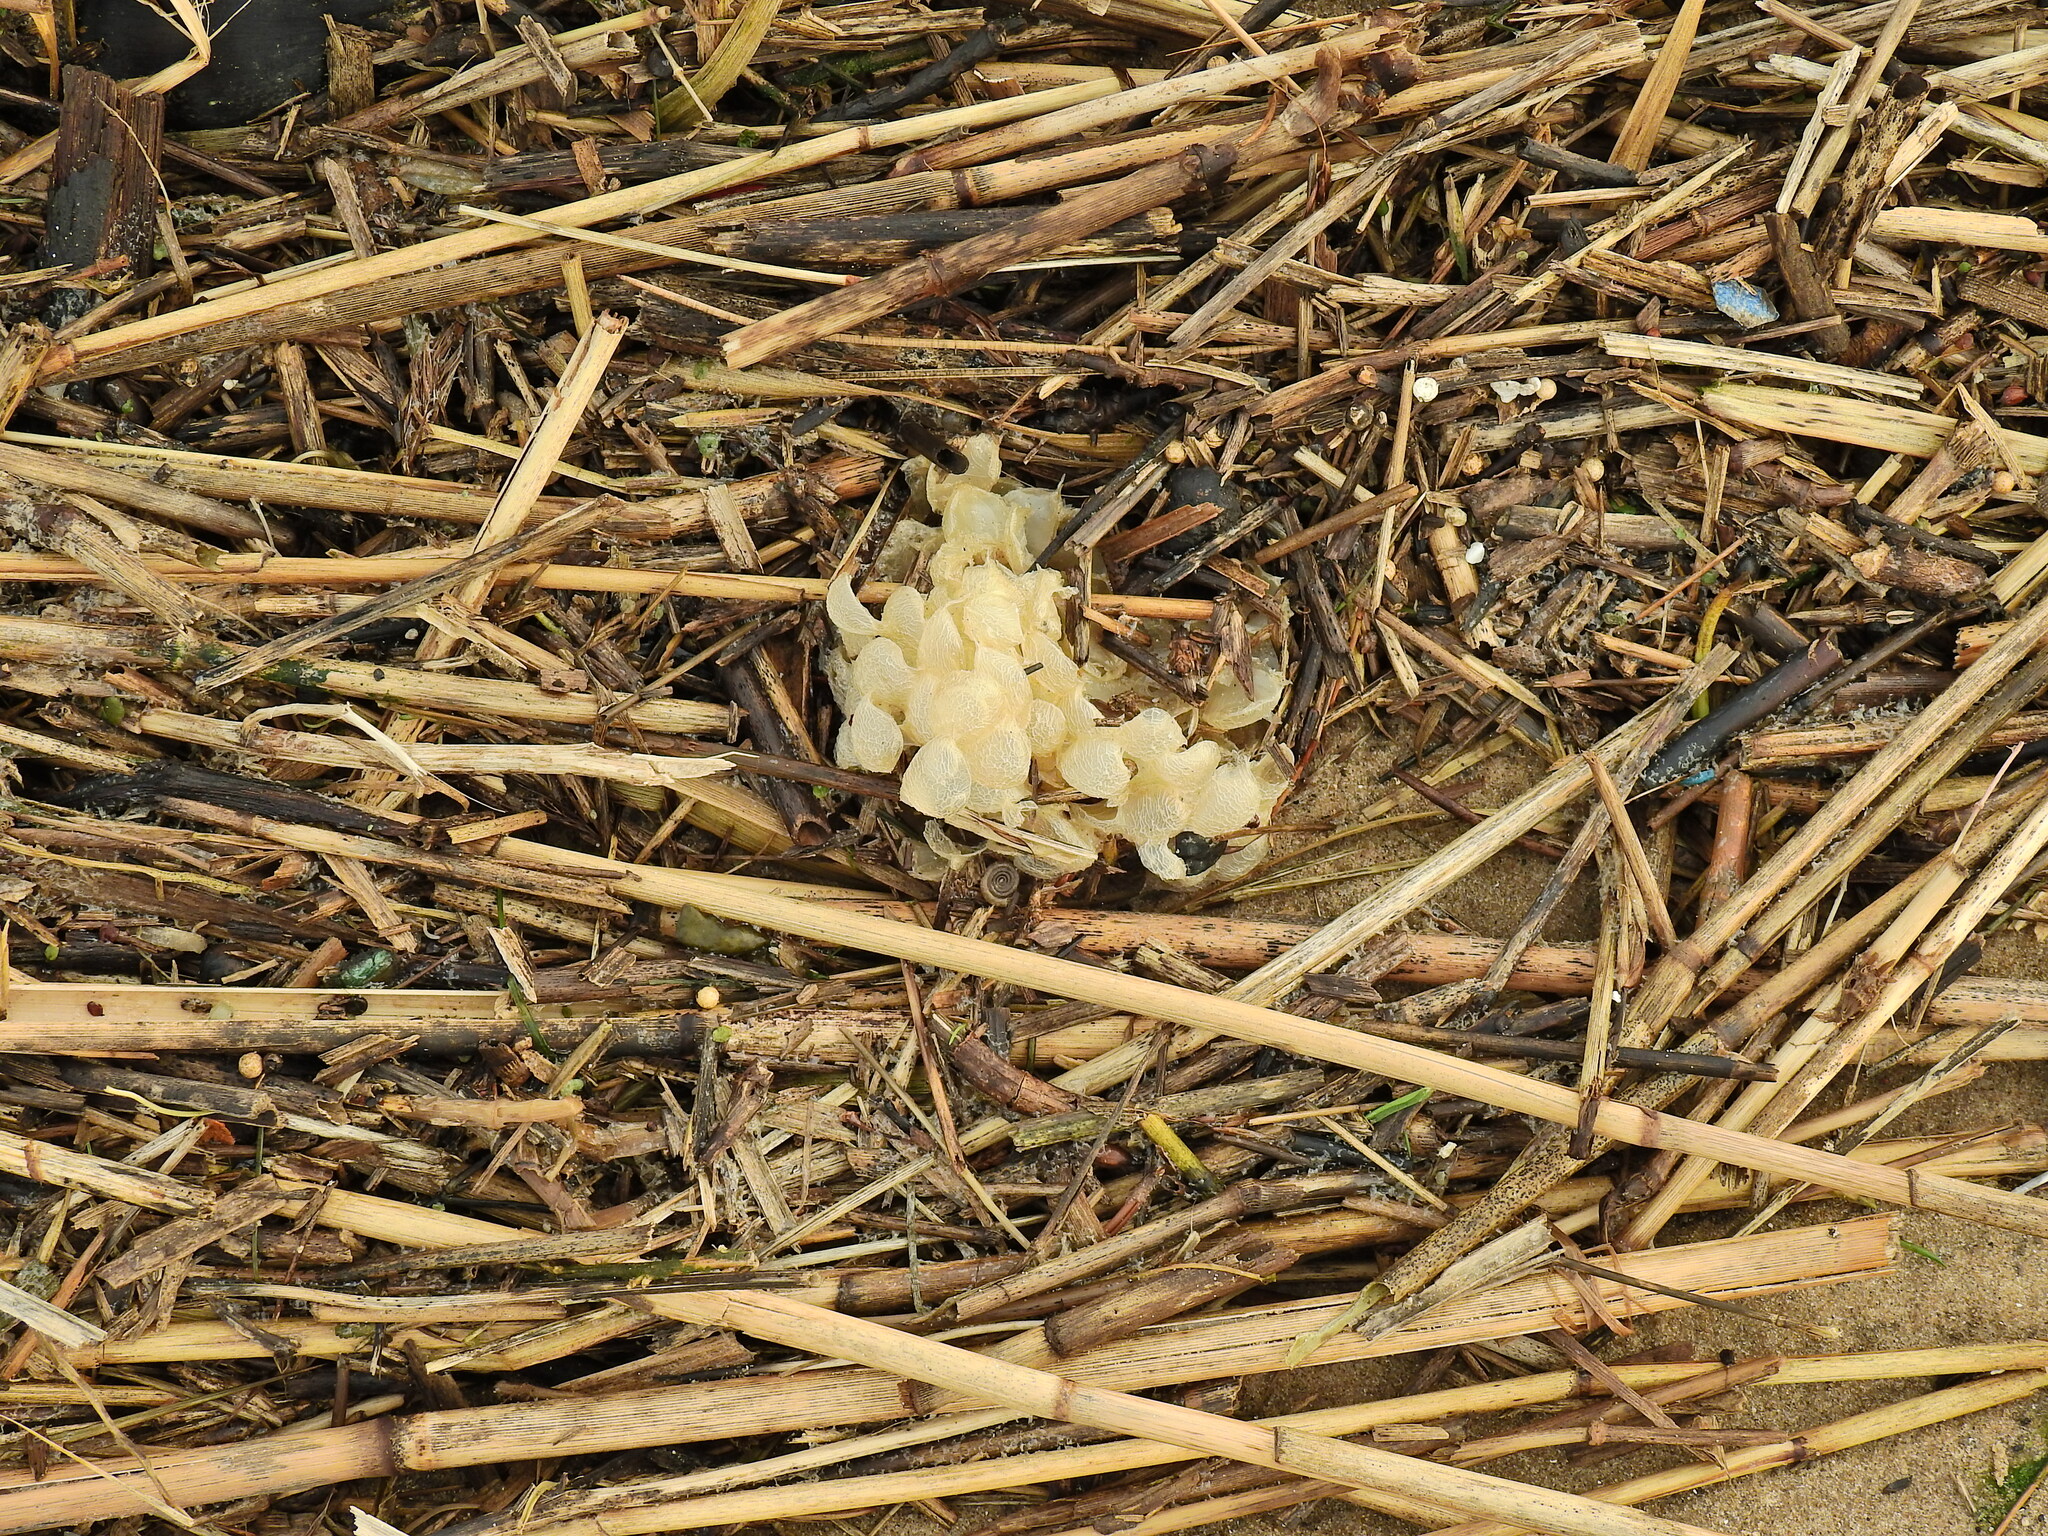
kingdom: Animalia
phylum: Mollusca
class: Gastropoda
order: Neogastropoda
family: Buccinidae
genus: Buccinum
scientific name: Buccinum undatum
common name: Common whelk
